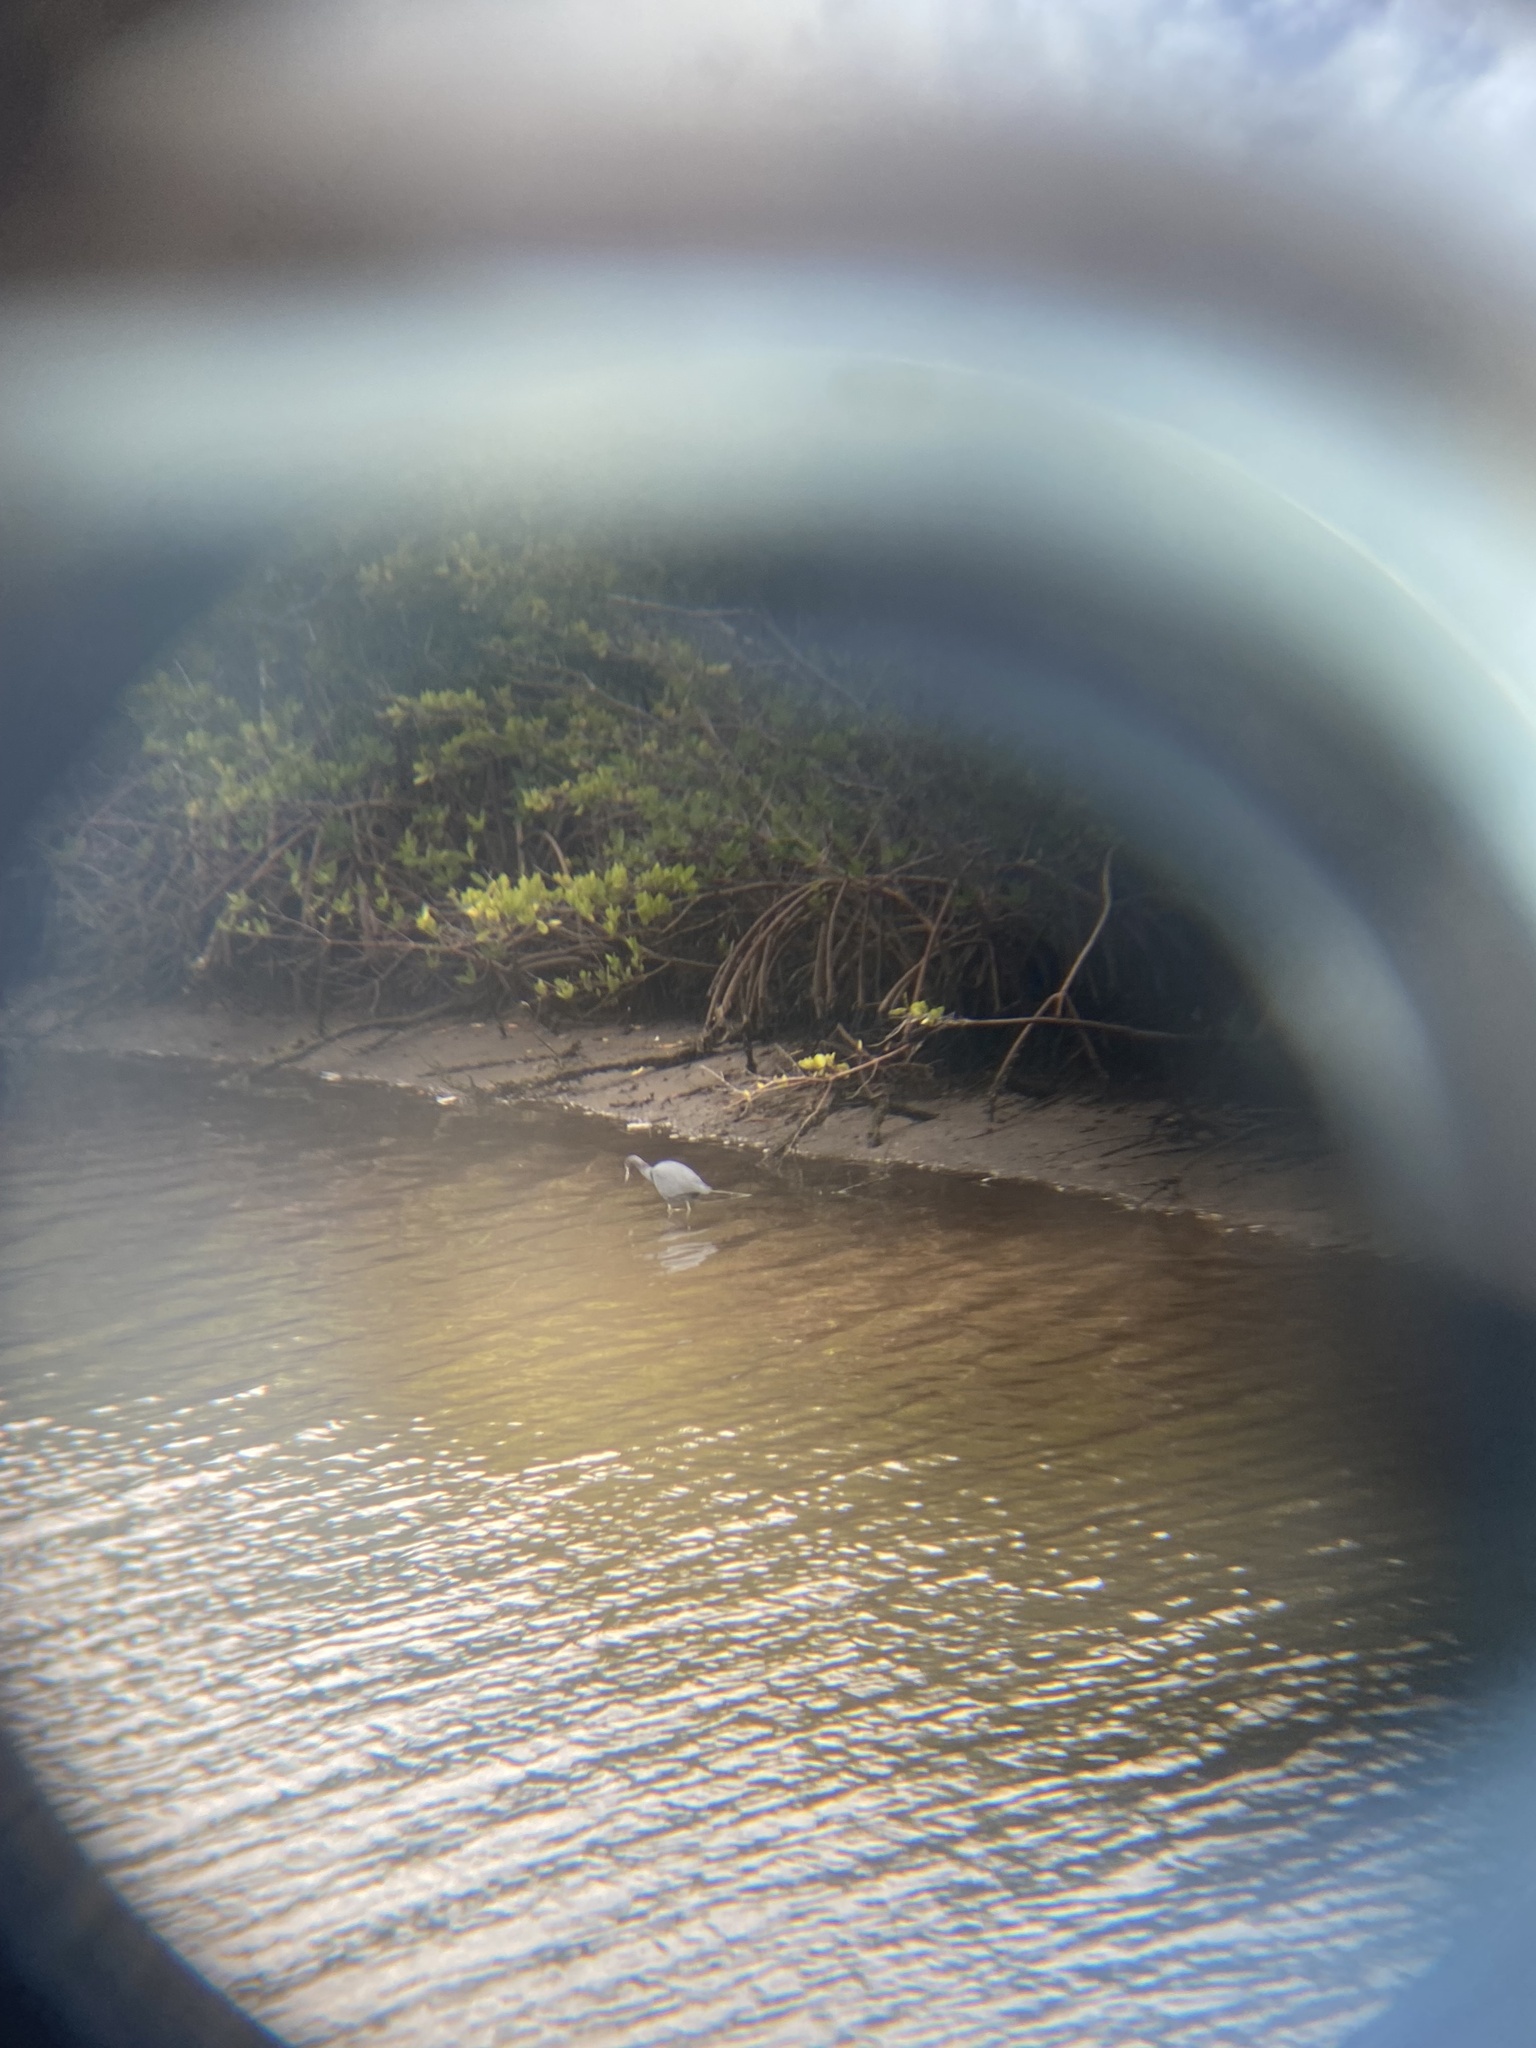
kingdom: Animalia
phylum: Chordata
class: Aves
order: Pelecaniformes
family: Ardeidae
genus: Egretta
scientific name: Egretta caerulea
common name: Little blue heron
